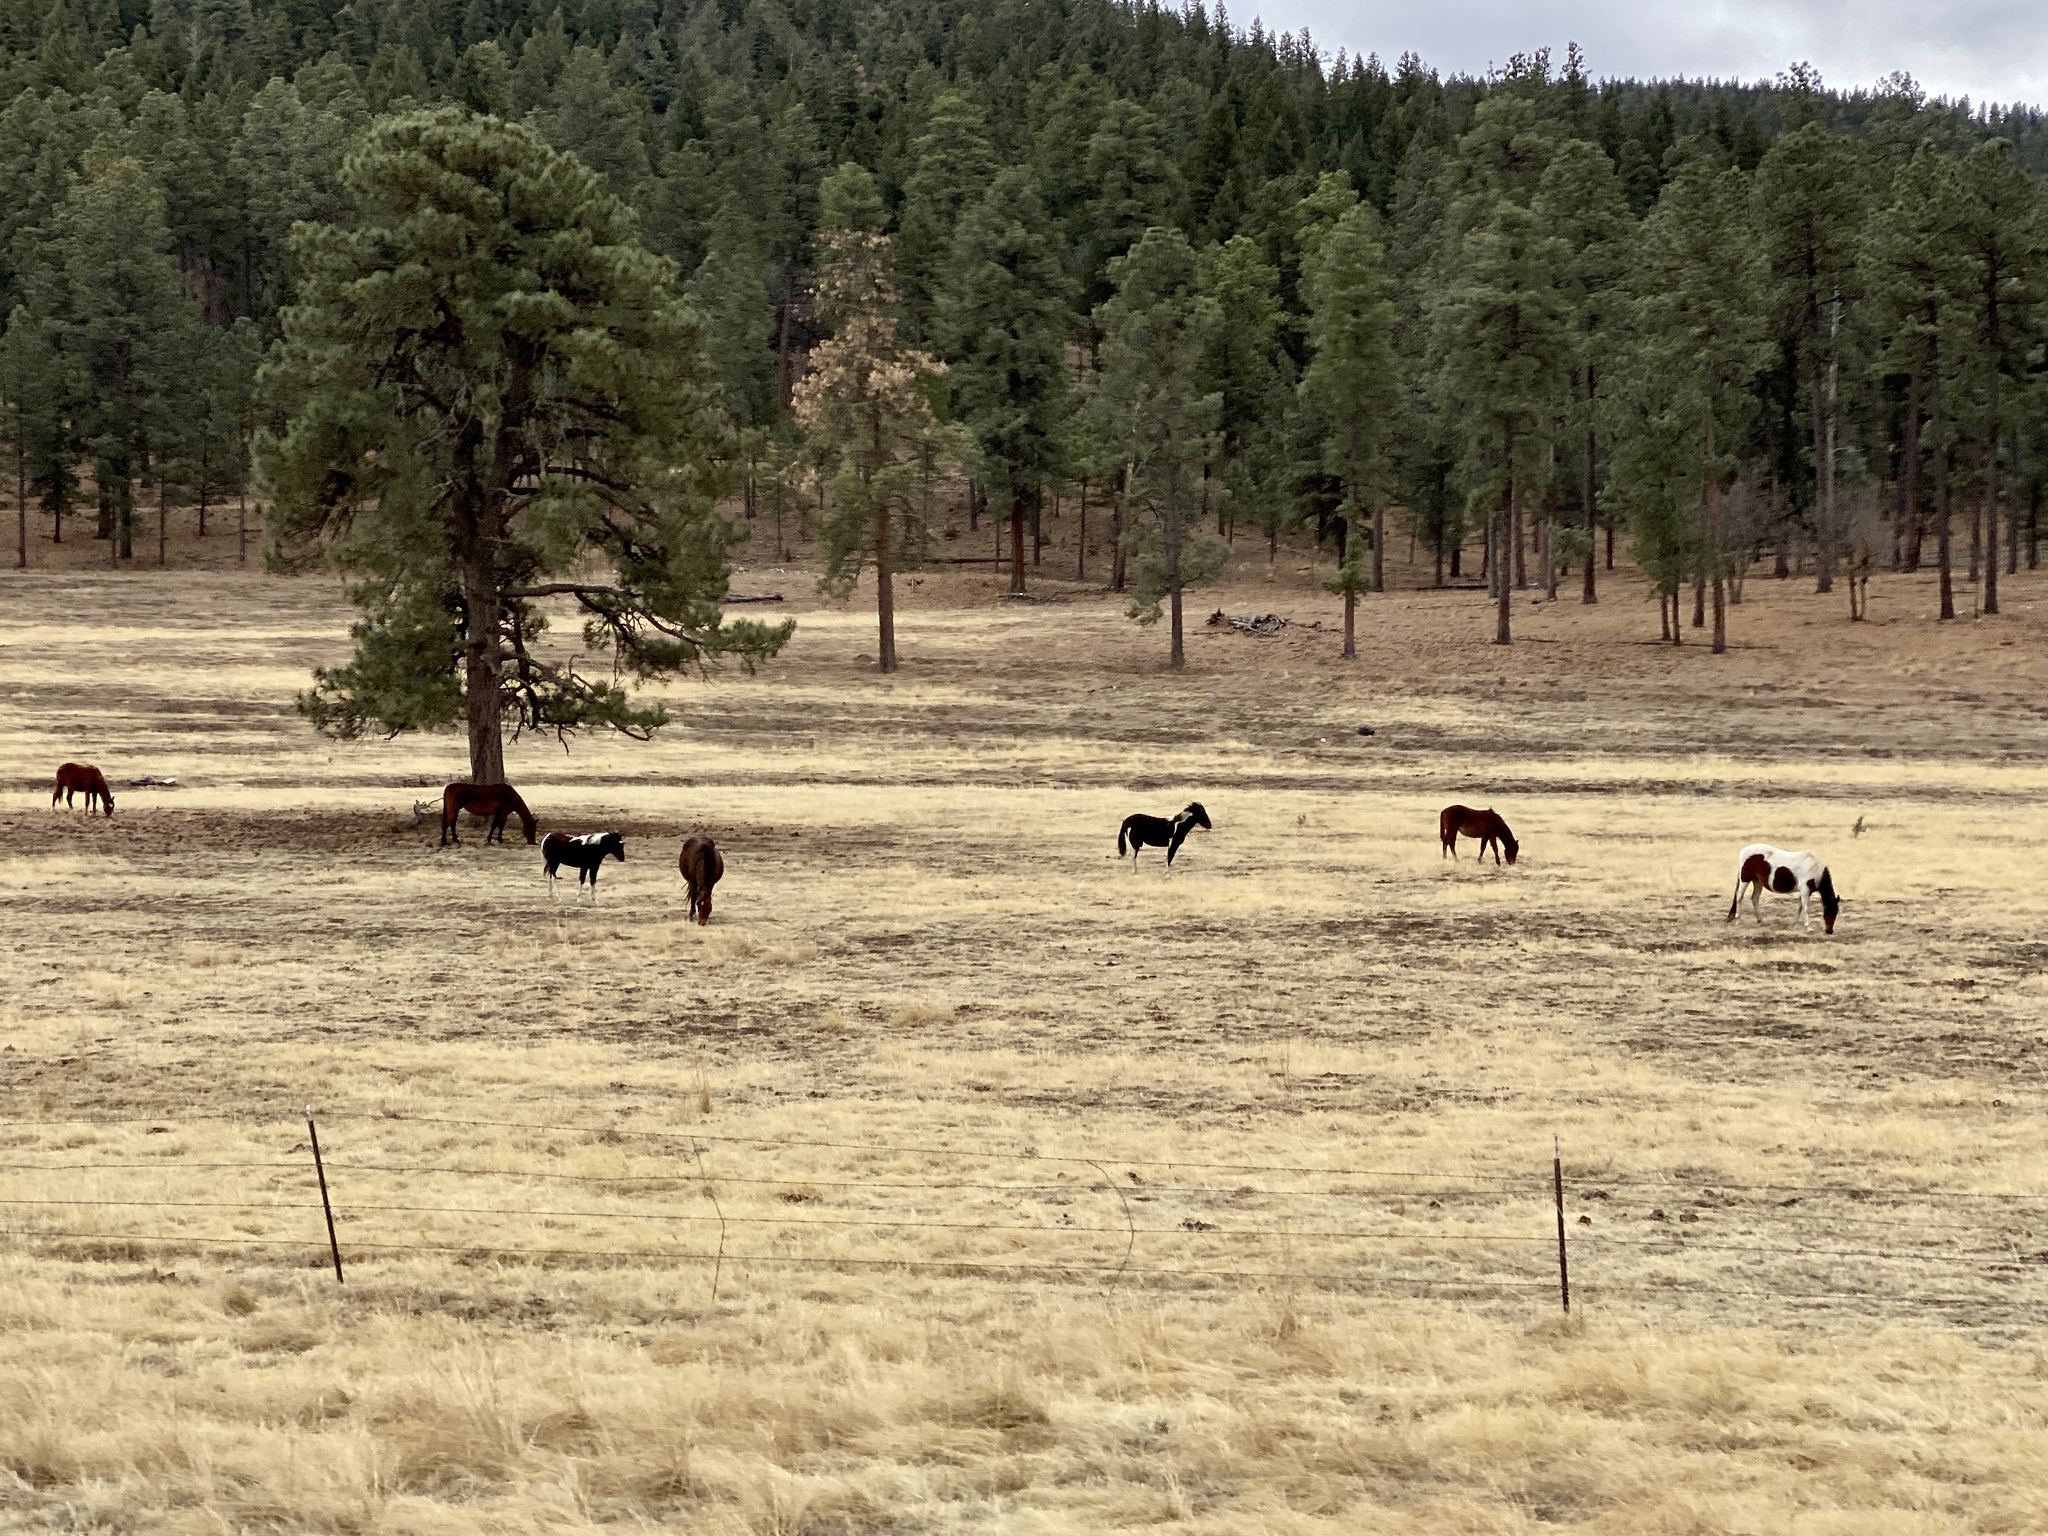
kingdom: Animalia
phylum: Chordata
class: Mammalia
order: Perissodactyla
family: Equidae
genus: Equus
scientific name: Equus caballus
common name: Horse
